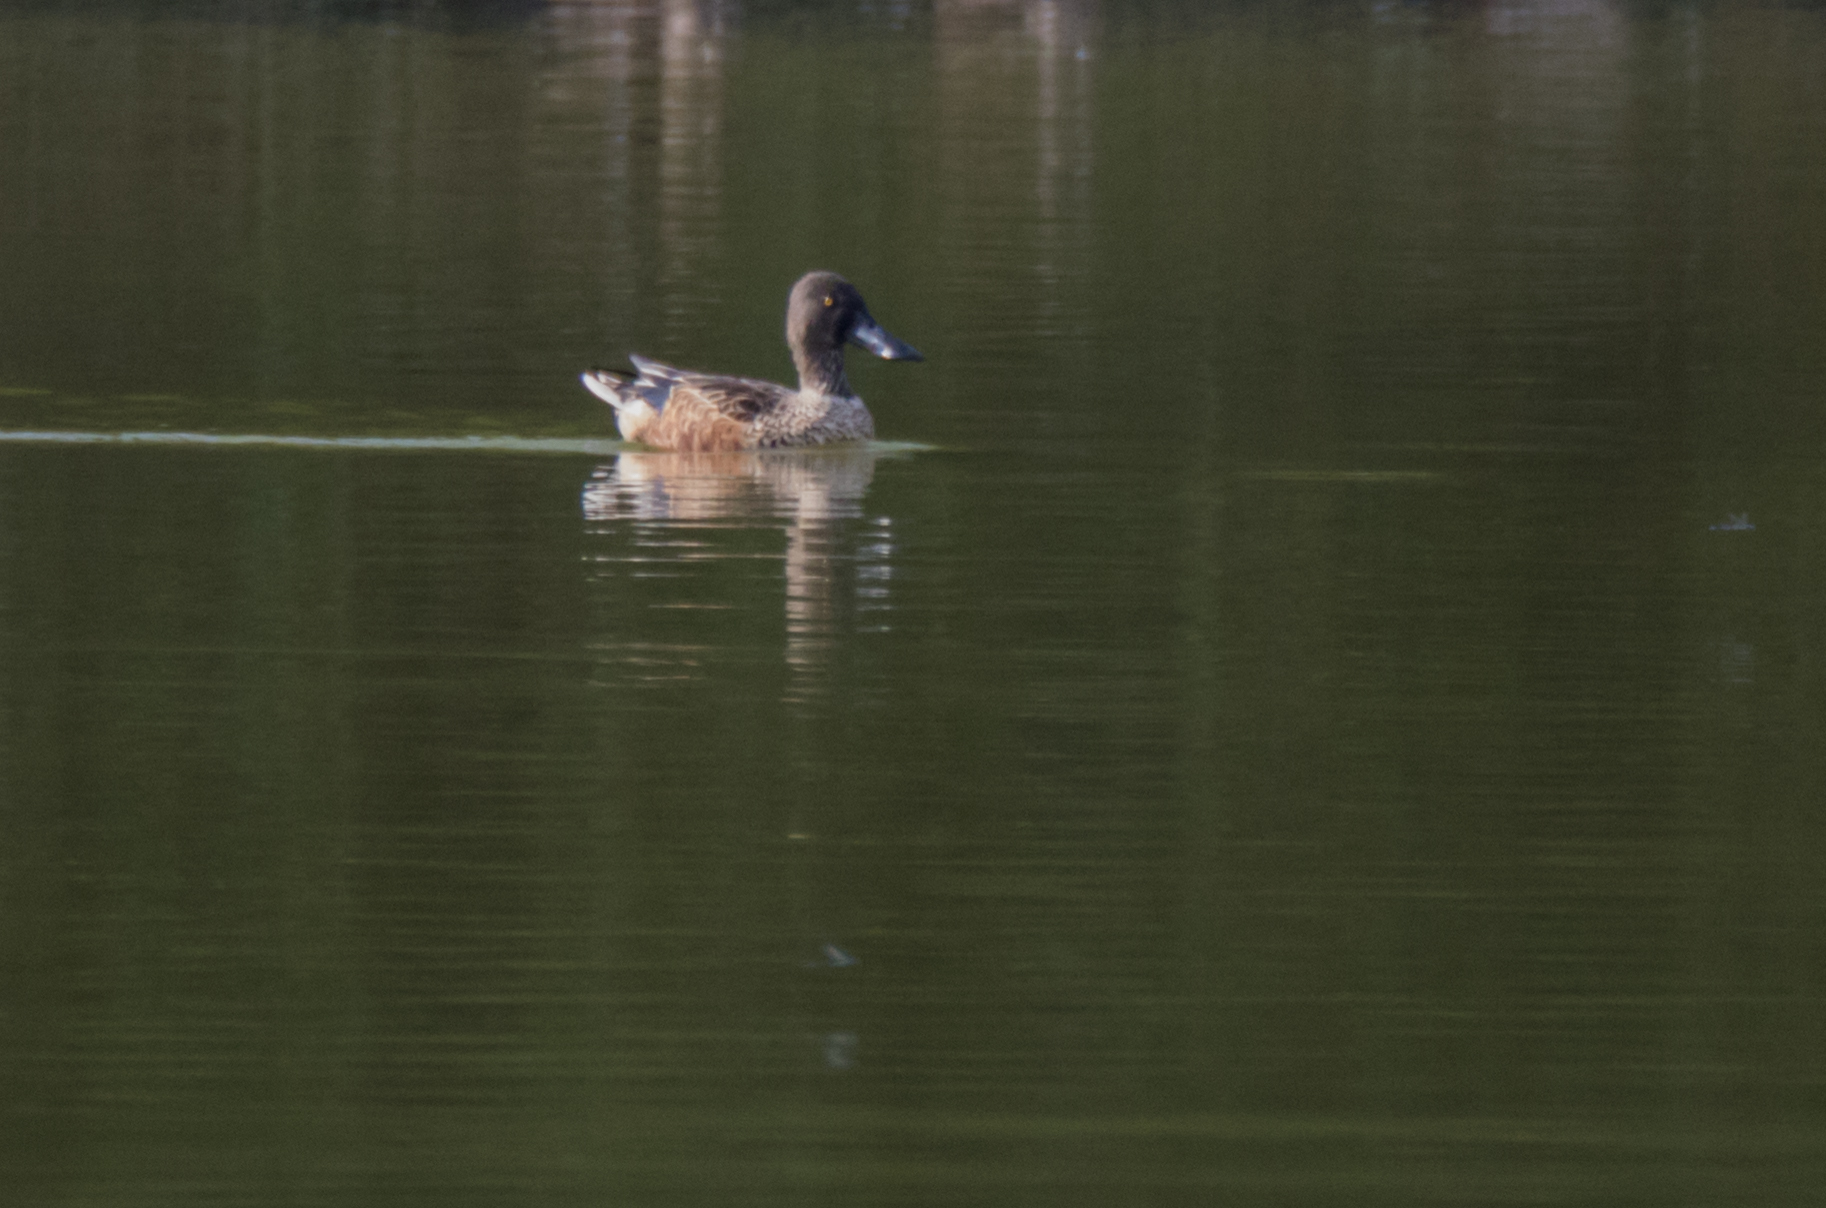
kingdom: Animalia
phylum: Chordata
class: Aves
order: Anseriformes
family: Anatidae
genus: Spatula
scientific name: Spatula clypeata
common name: Northern shoveler
